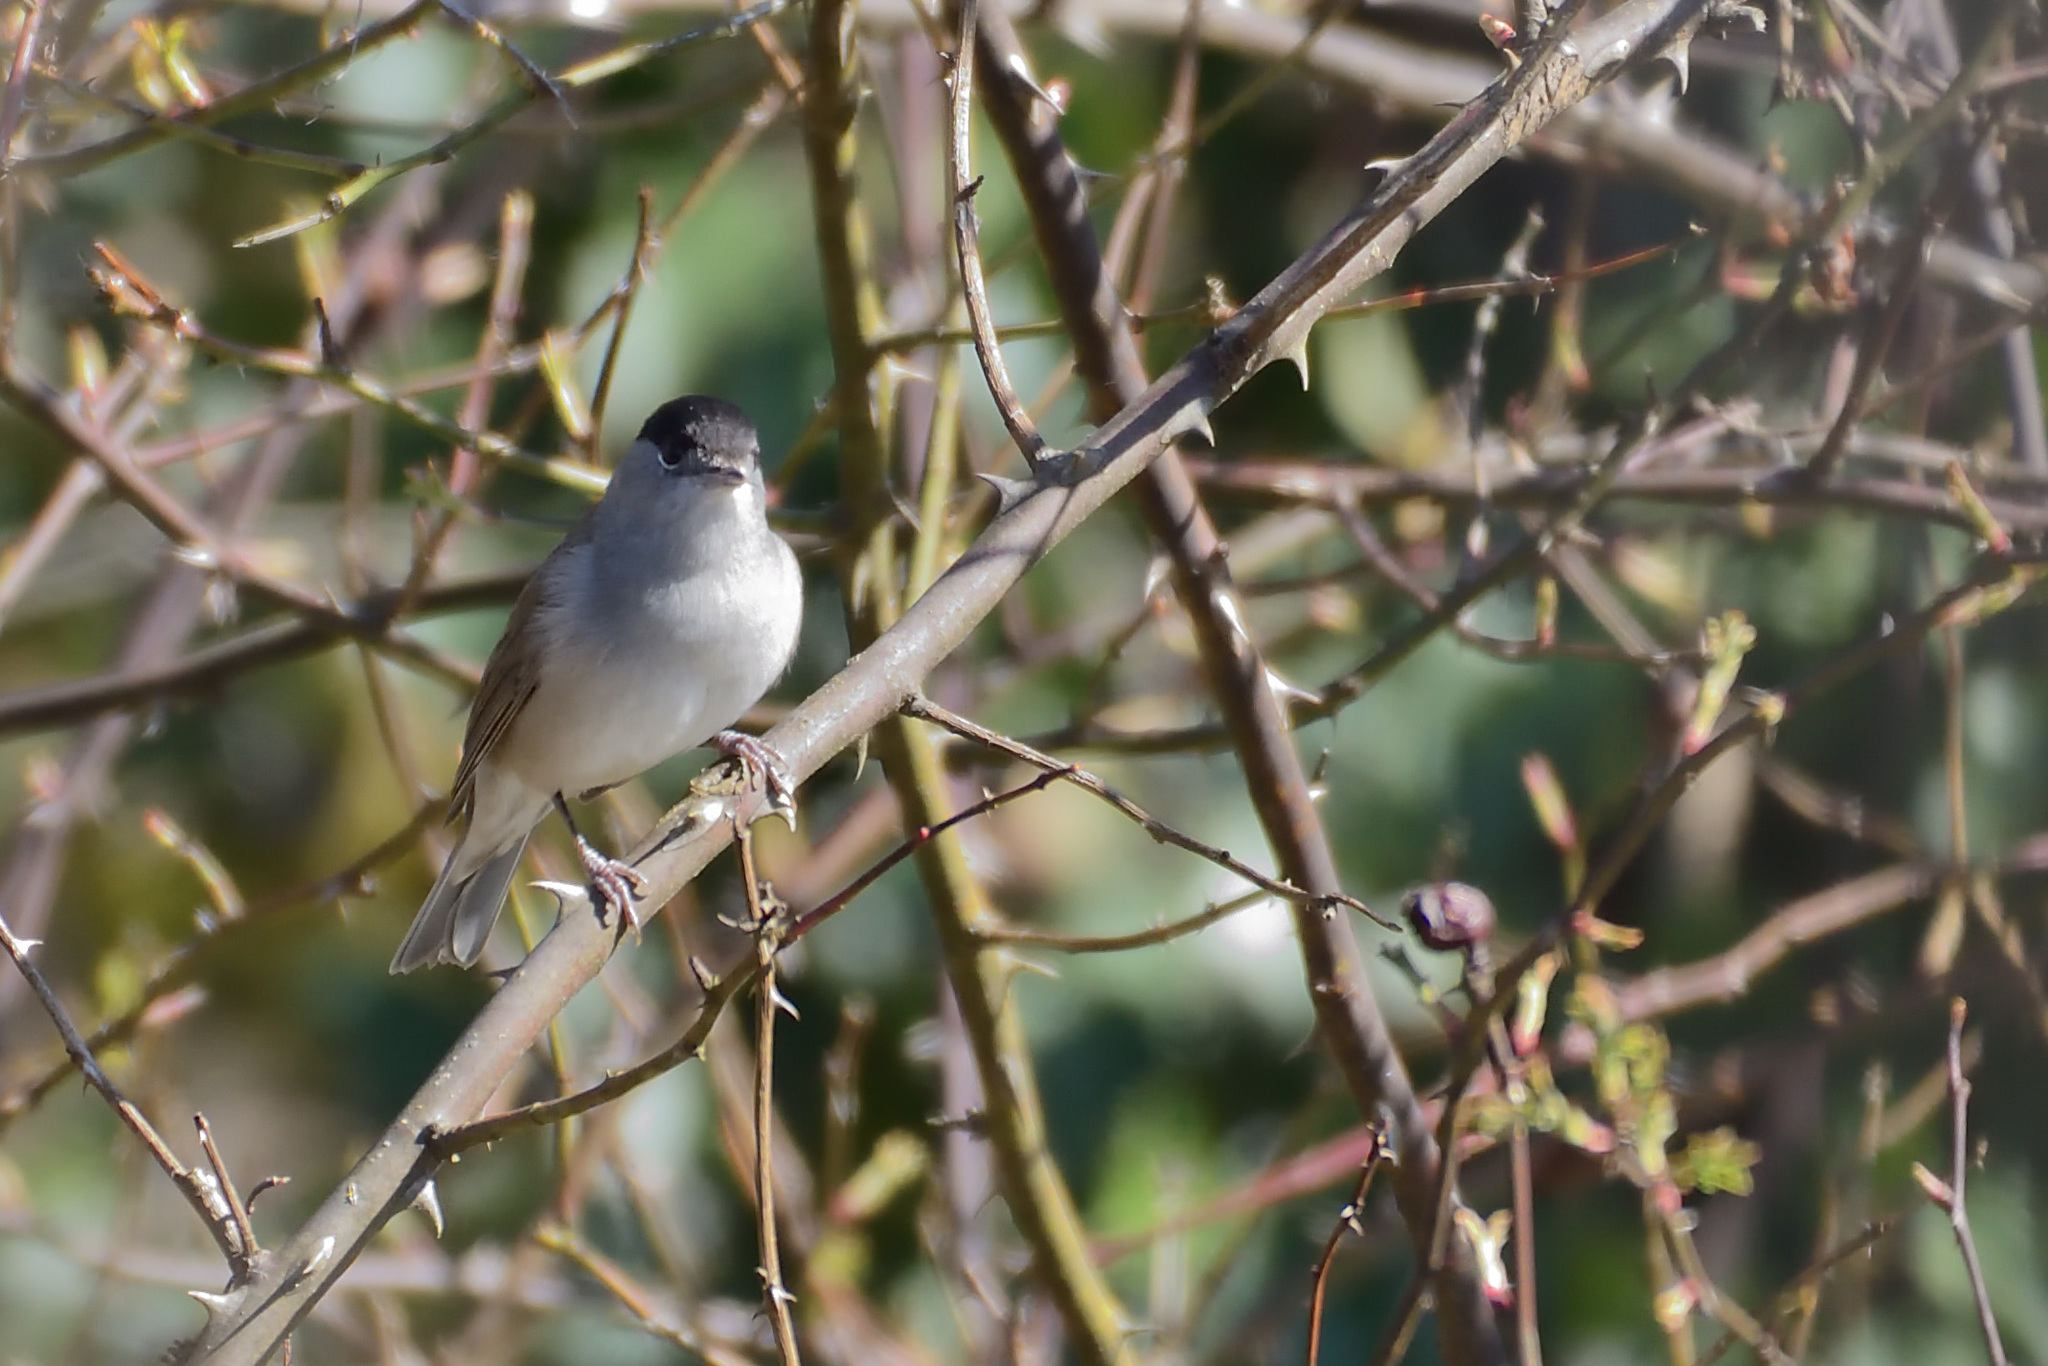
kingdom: Animalia
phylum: Chordata
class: Aves
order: Passeriformes
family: Sylviidae
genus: Sylvia
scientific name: Sylvia atricapilla
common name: Eurasian blackcap
